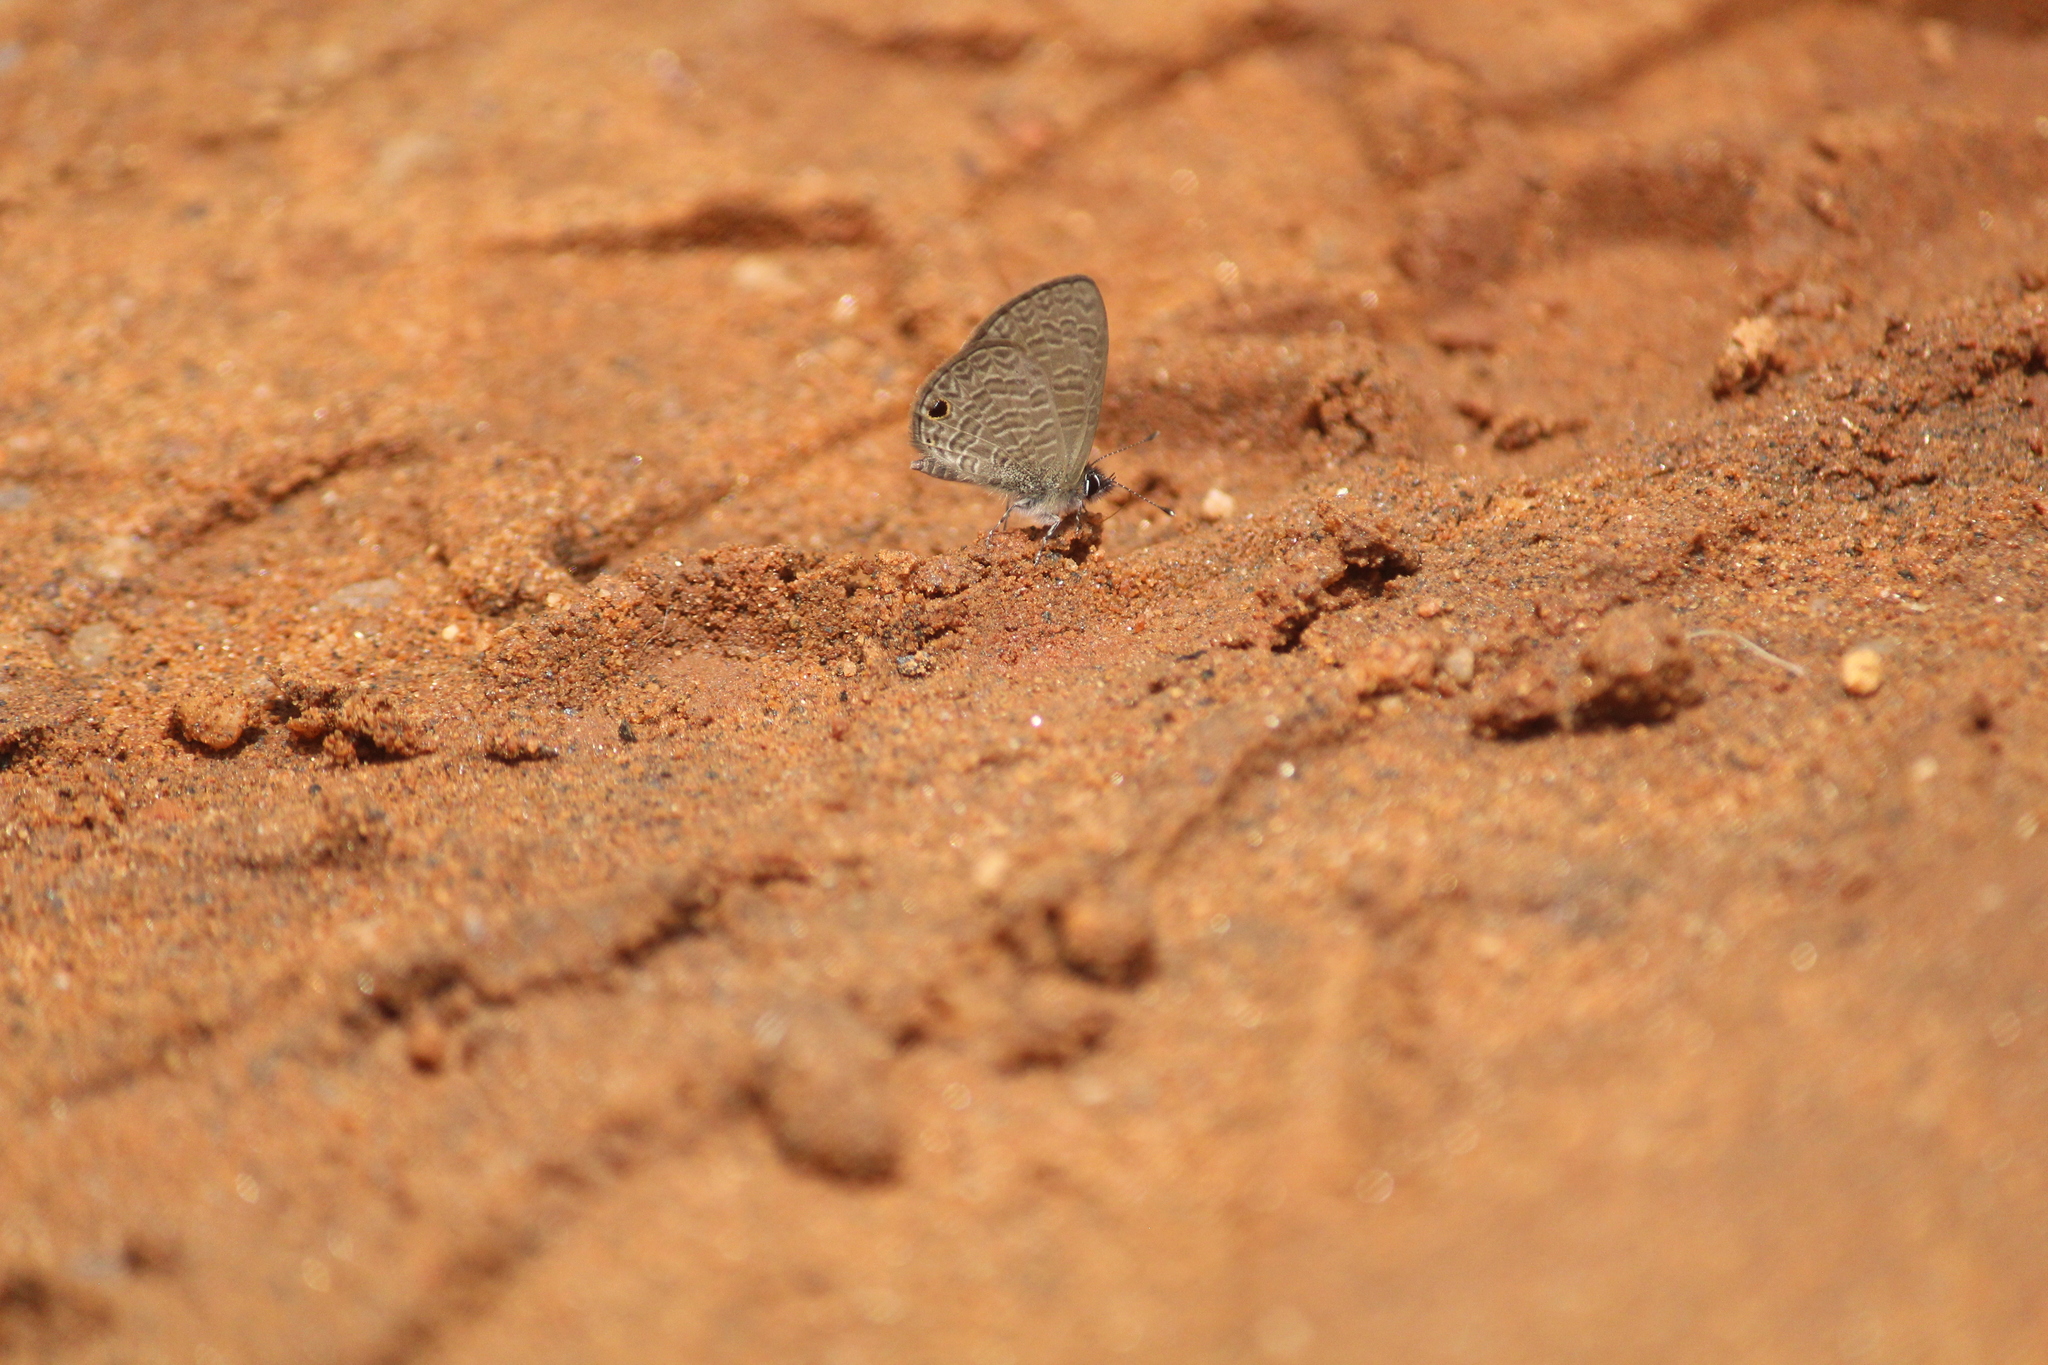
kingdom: Animalia
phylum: Arthropoda
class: Insecta
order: Lepidoptera
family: Lycaenidae
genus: Prosotas
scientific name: Prosotas dubiosa
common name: Tailless lineblue
